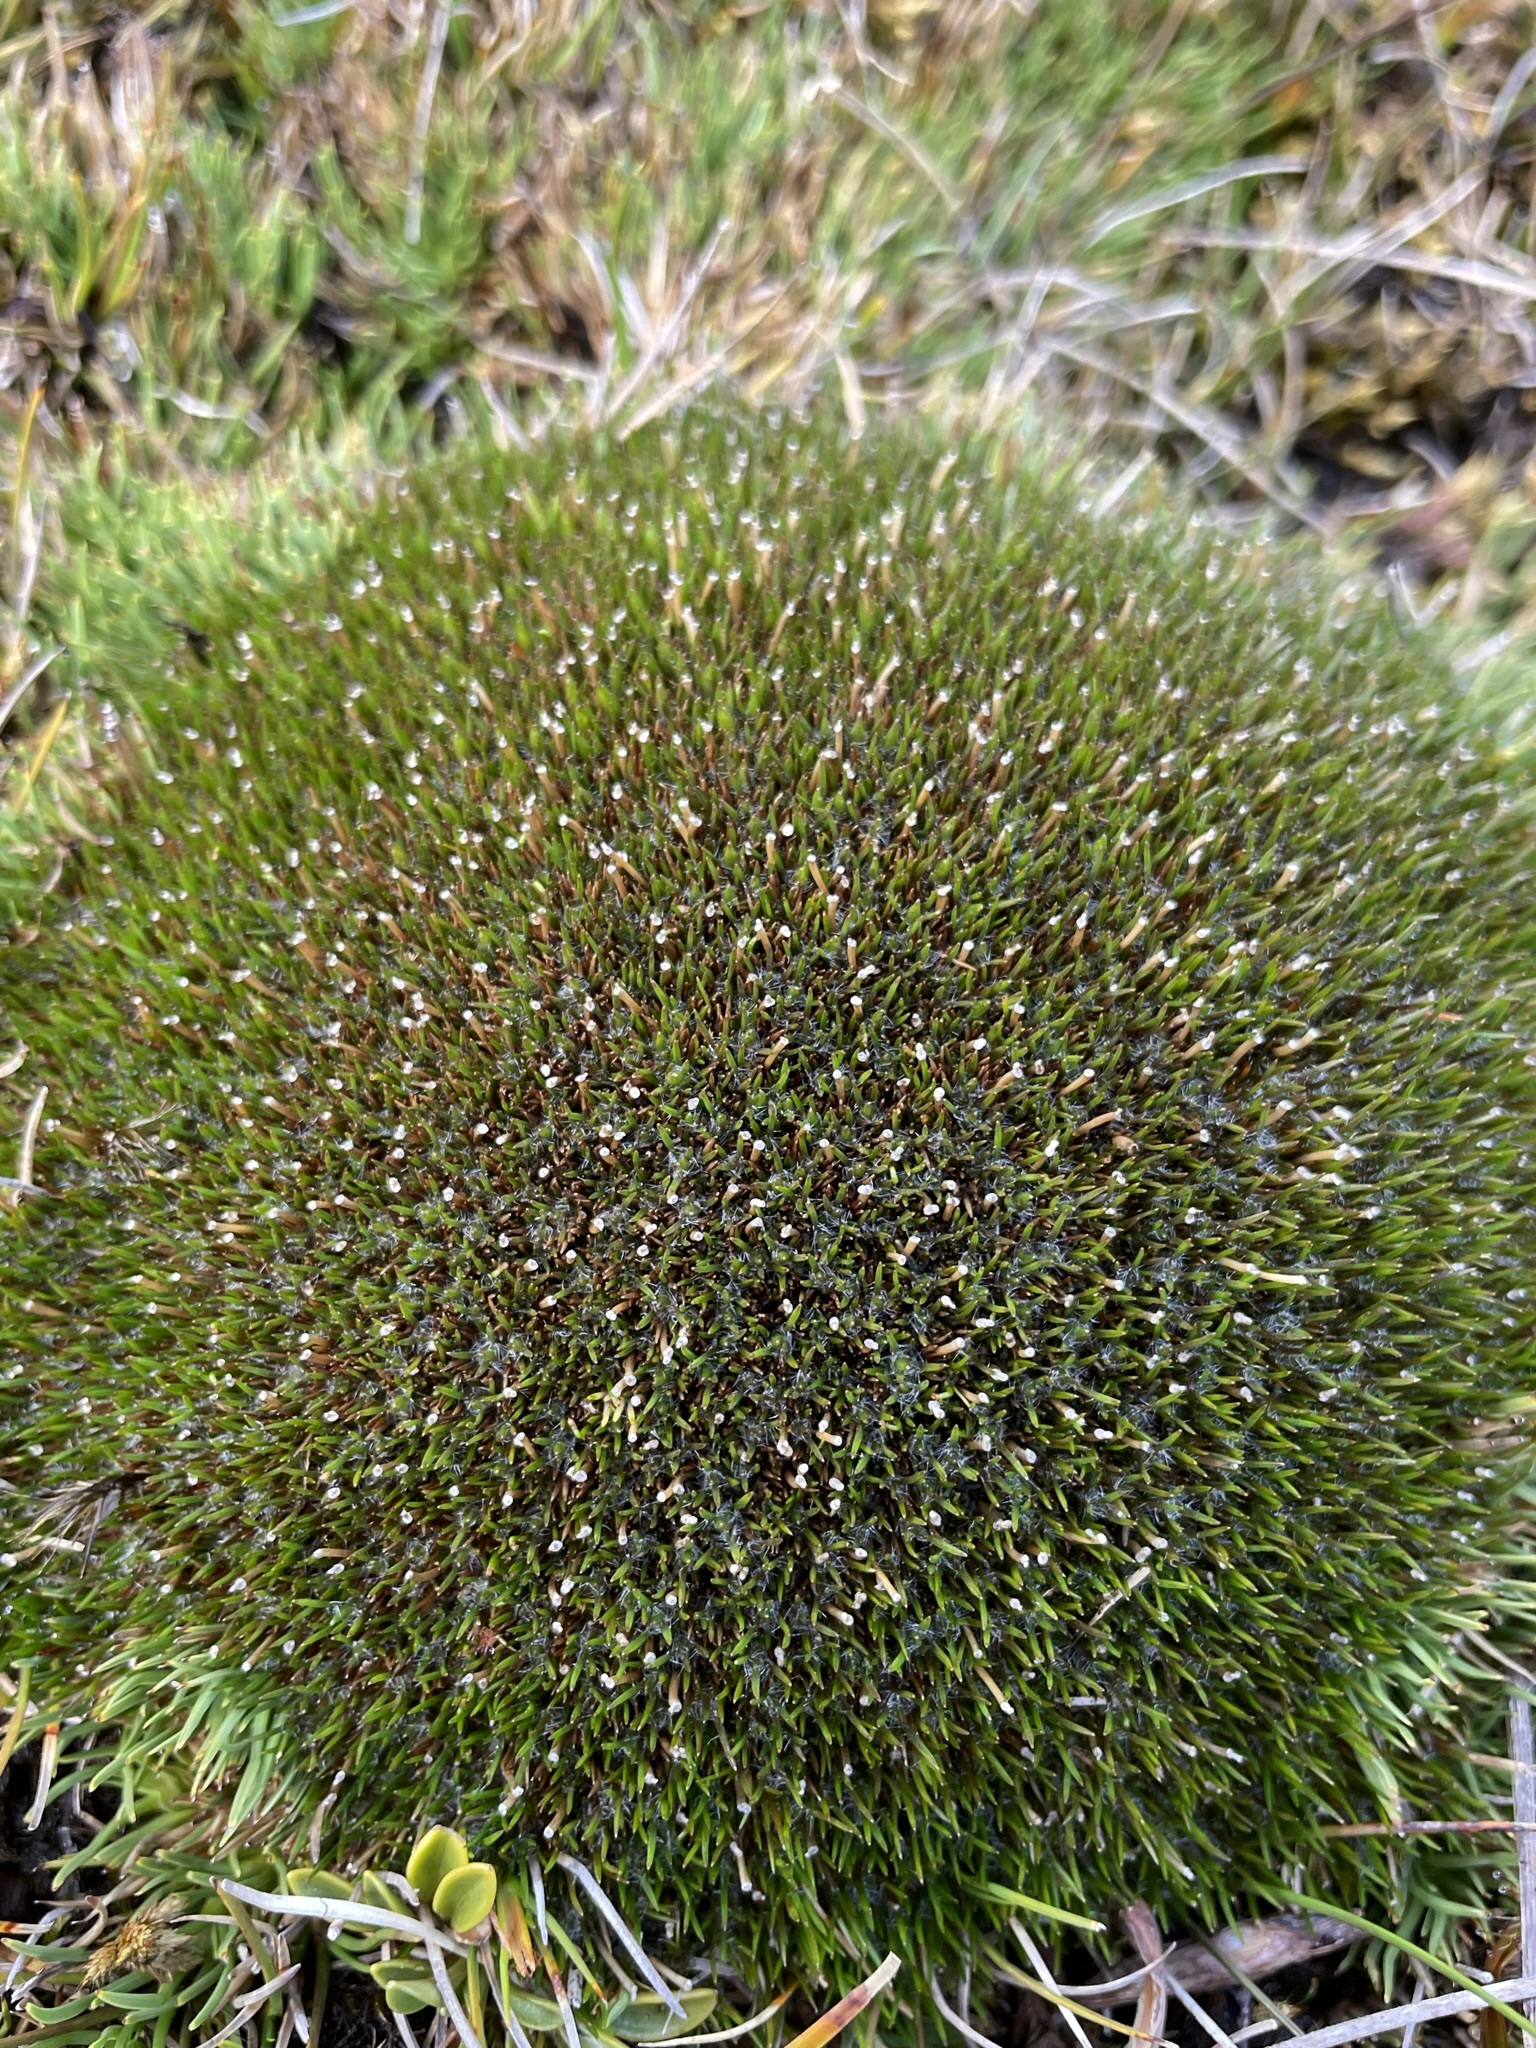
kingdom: Plantae
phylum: Tracheophyta
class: Liliopsida
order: Poales
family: Cyperaceae
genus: Oreobolus
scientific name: Oreobolus pectinatus
